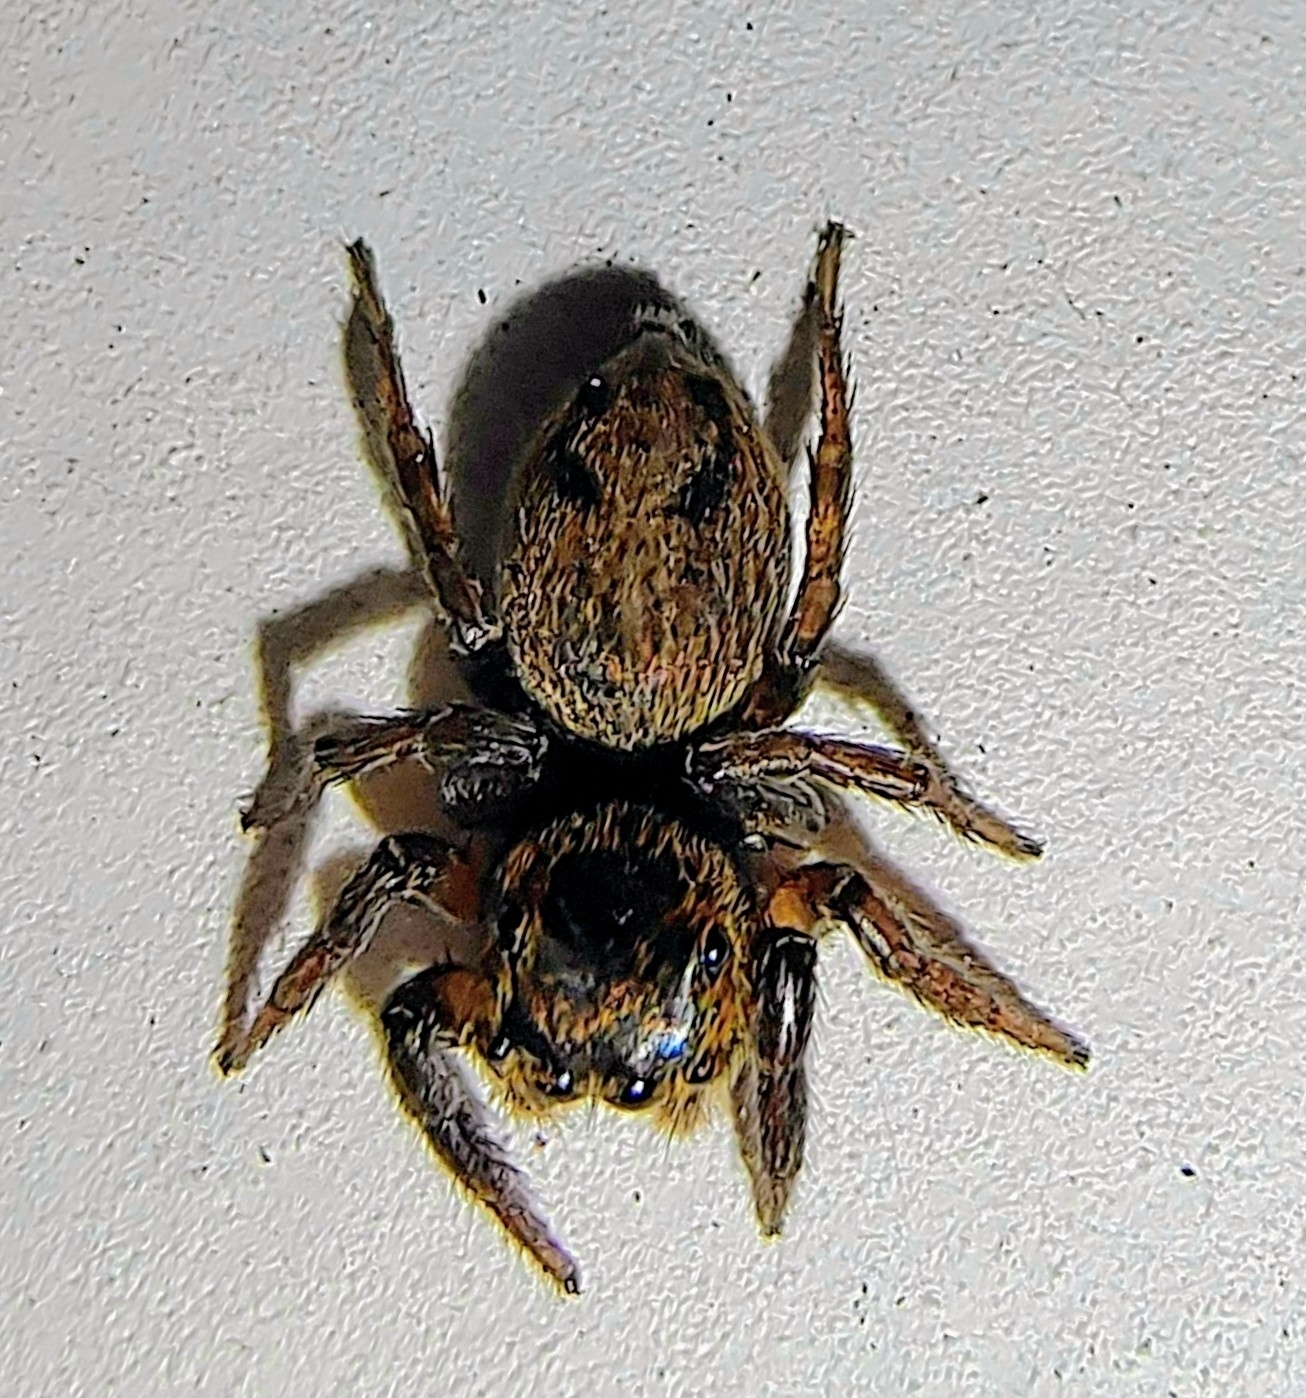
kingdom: Animalia
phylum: Arthropoda
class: Arachnida
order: Araneae
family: Salticidae
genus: Hasarius
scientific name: Hasarius adansoni
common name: Jumping spider
